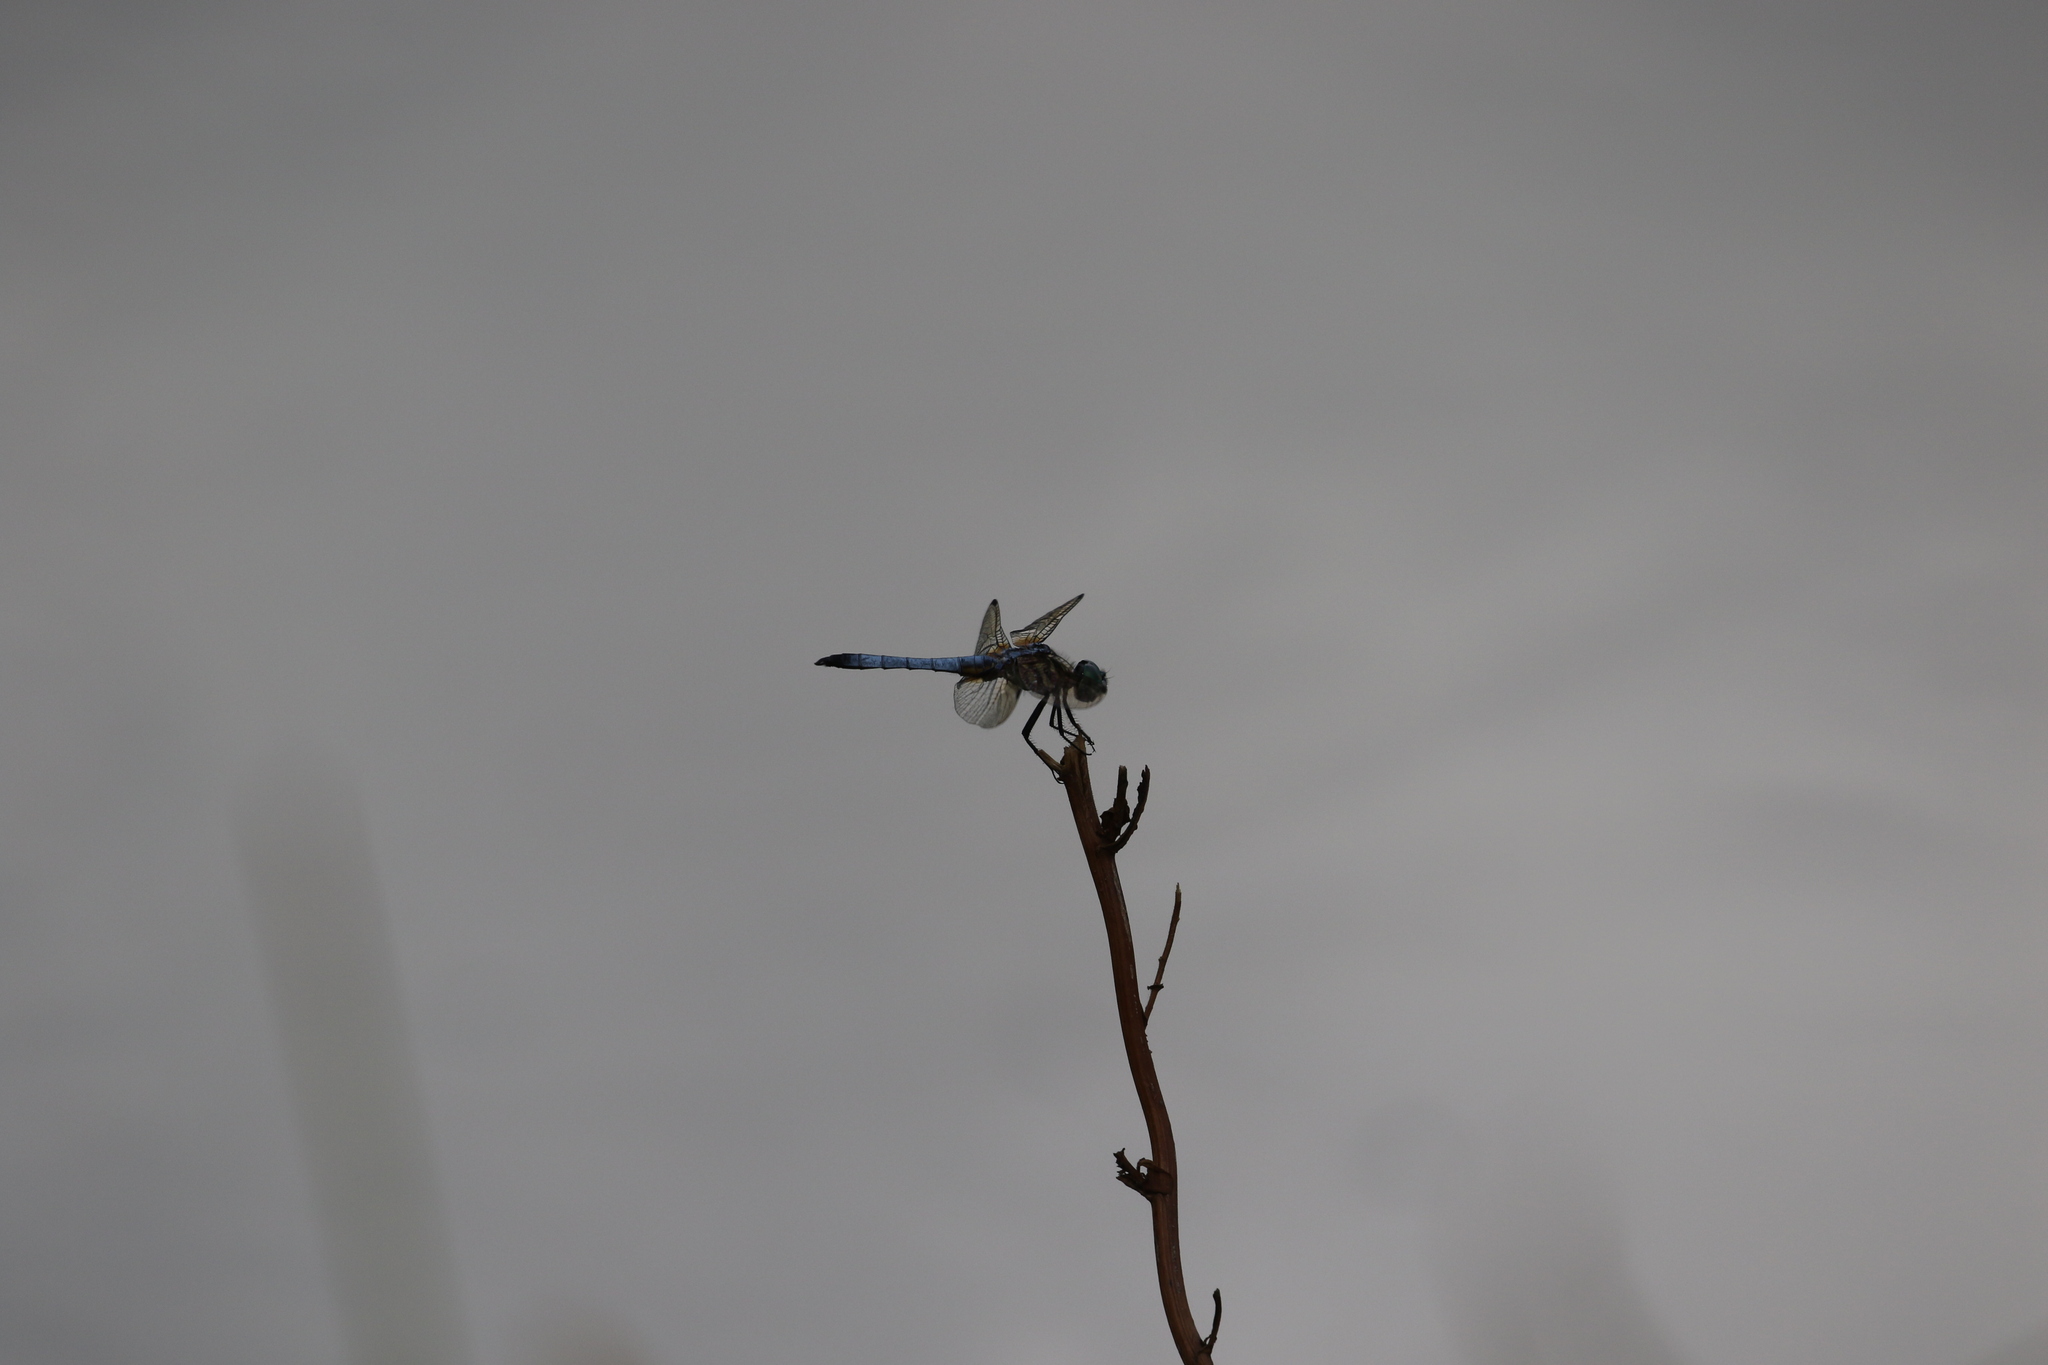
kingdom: Animalia
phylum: Arthropoda
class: Insecta
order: Odonata
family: Libellulidae
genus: Pachydiplax
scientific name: Pachydiplax longipennis
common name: Blue dasher
